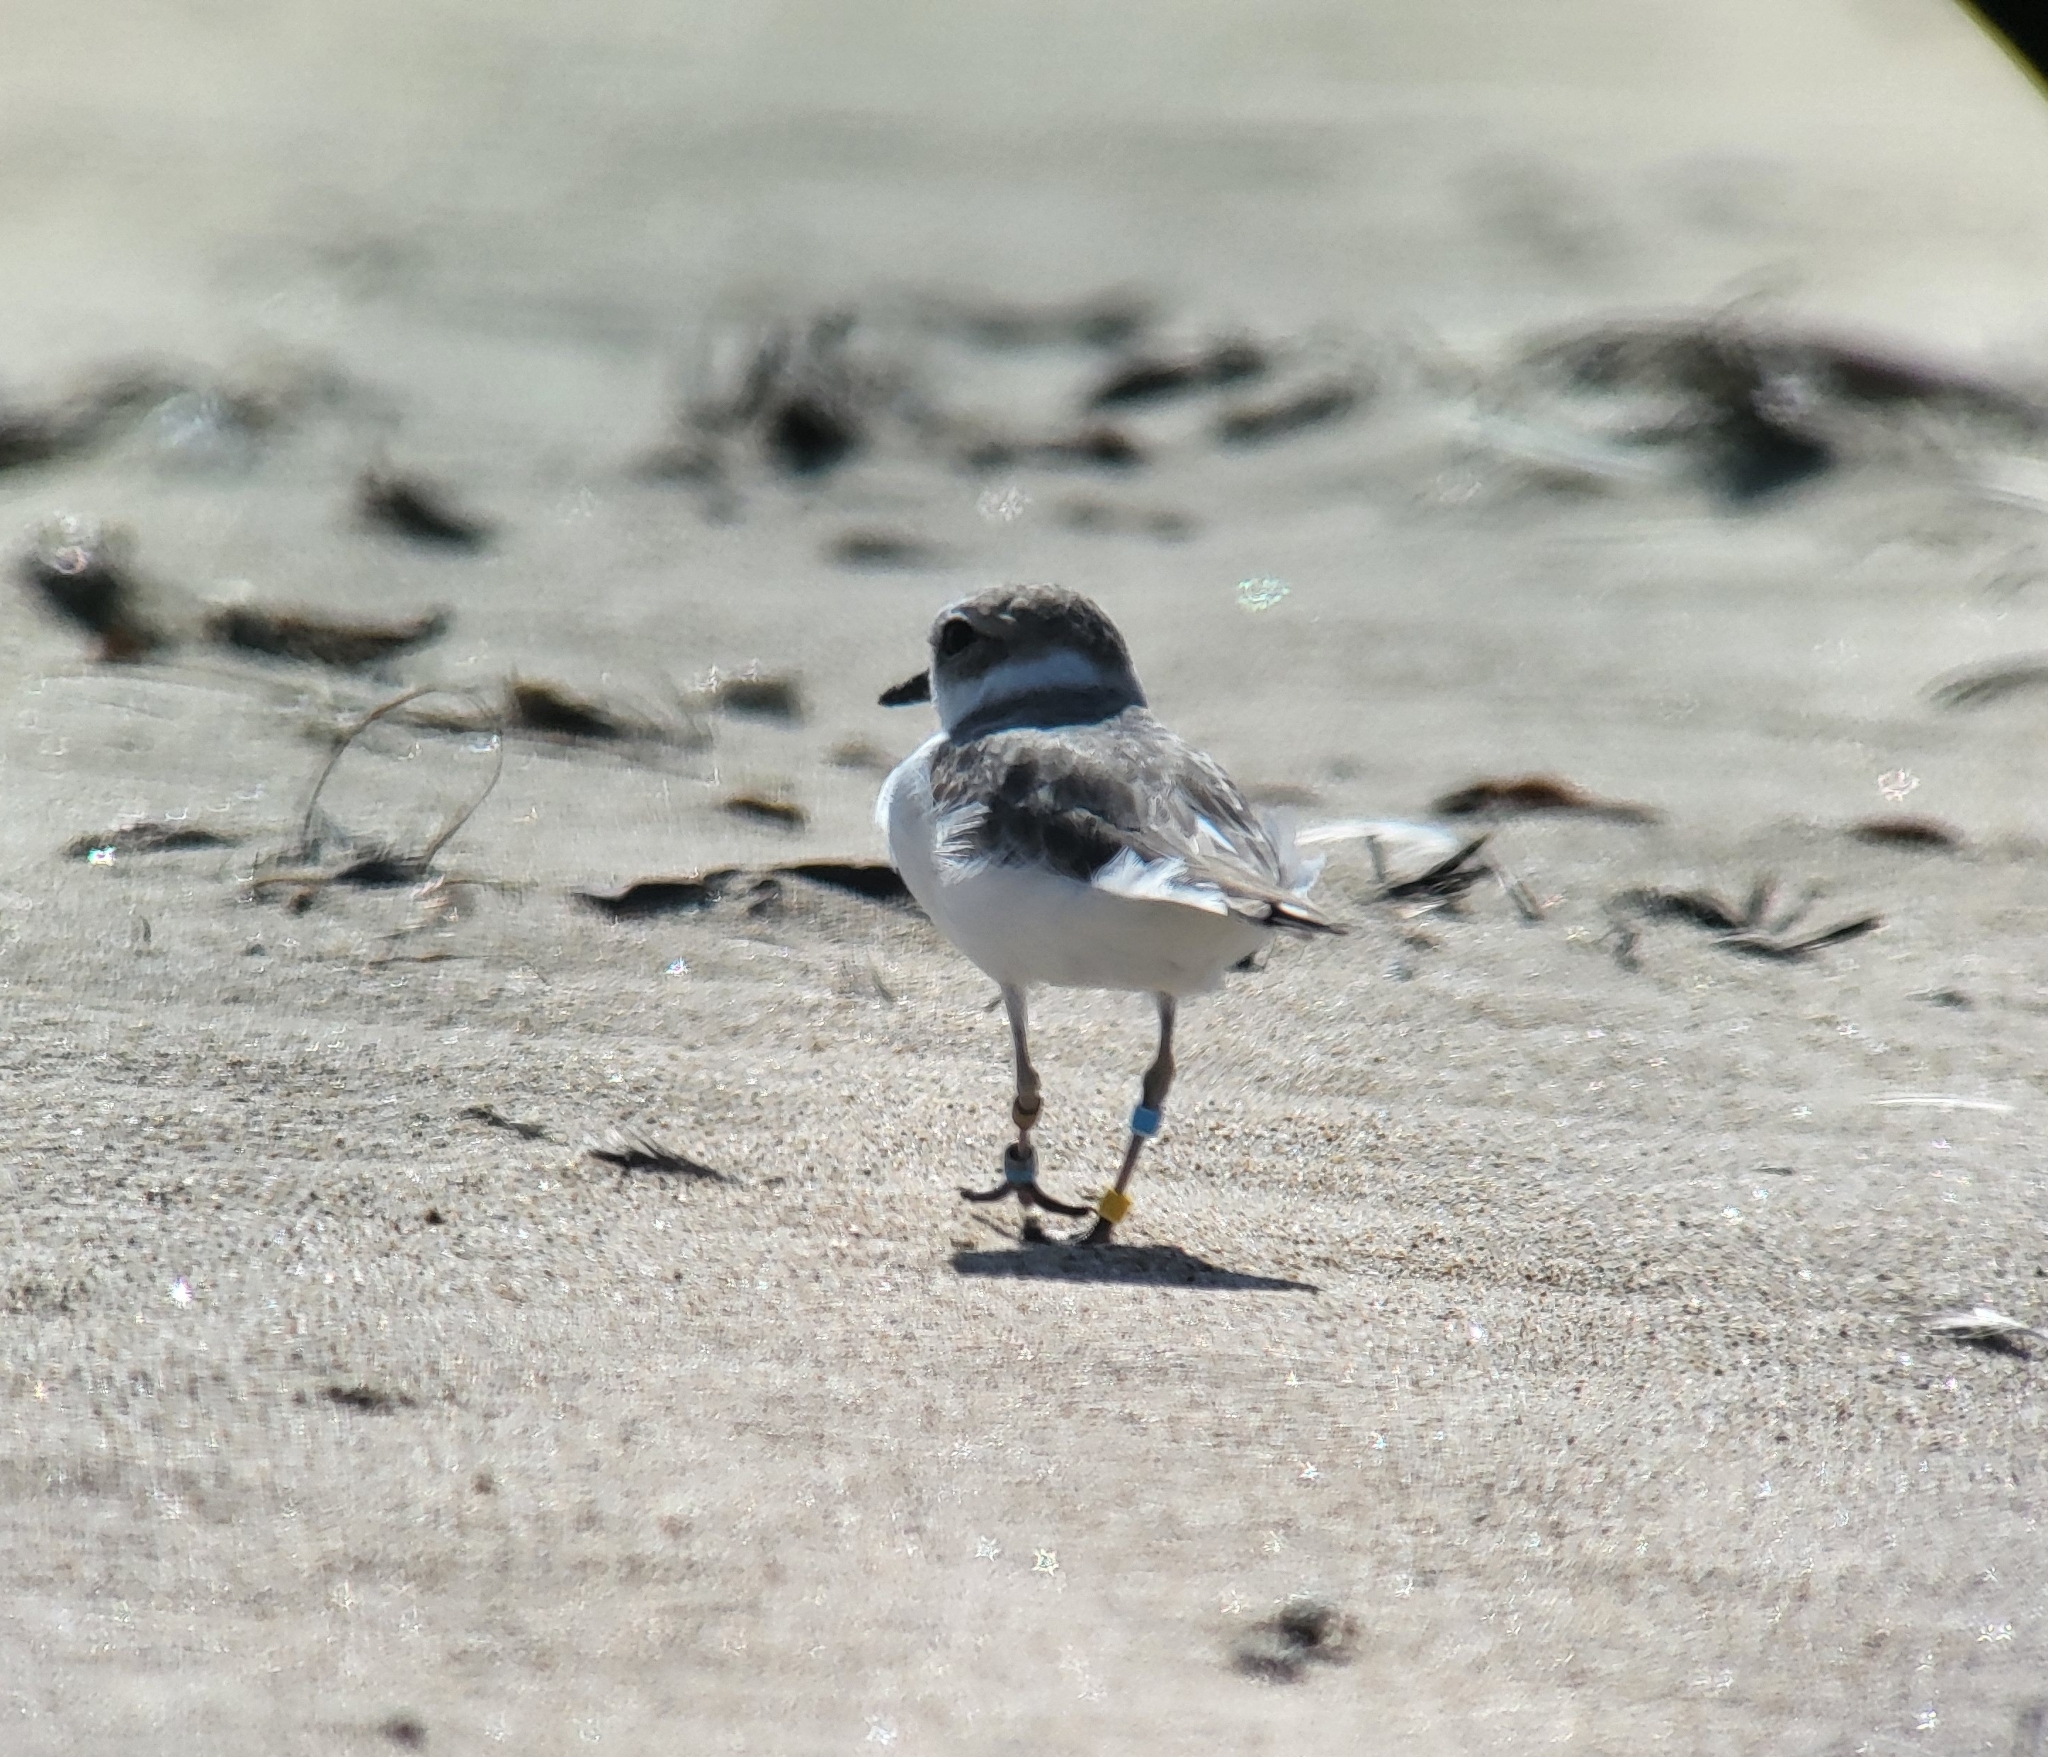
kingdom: Animalia
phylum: Chordata
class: Aves
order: Charadriiformes
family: Charadriidae
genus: Anarhynchus
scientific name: Anarhynchus
